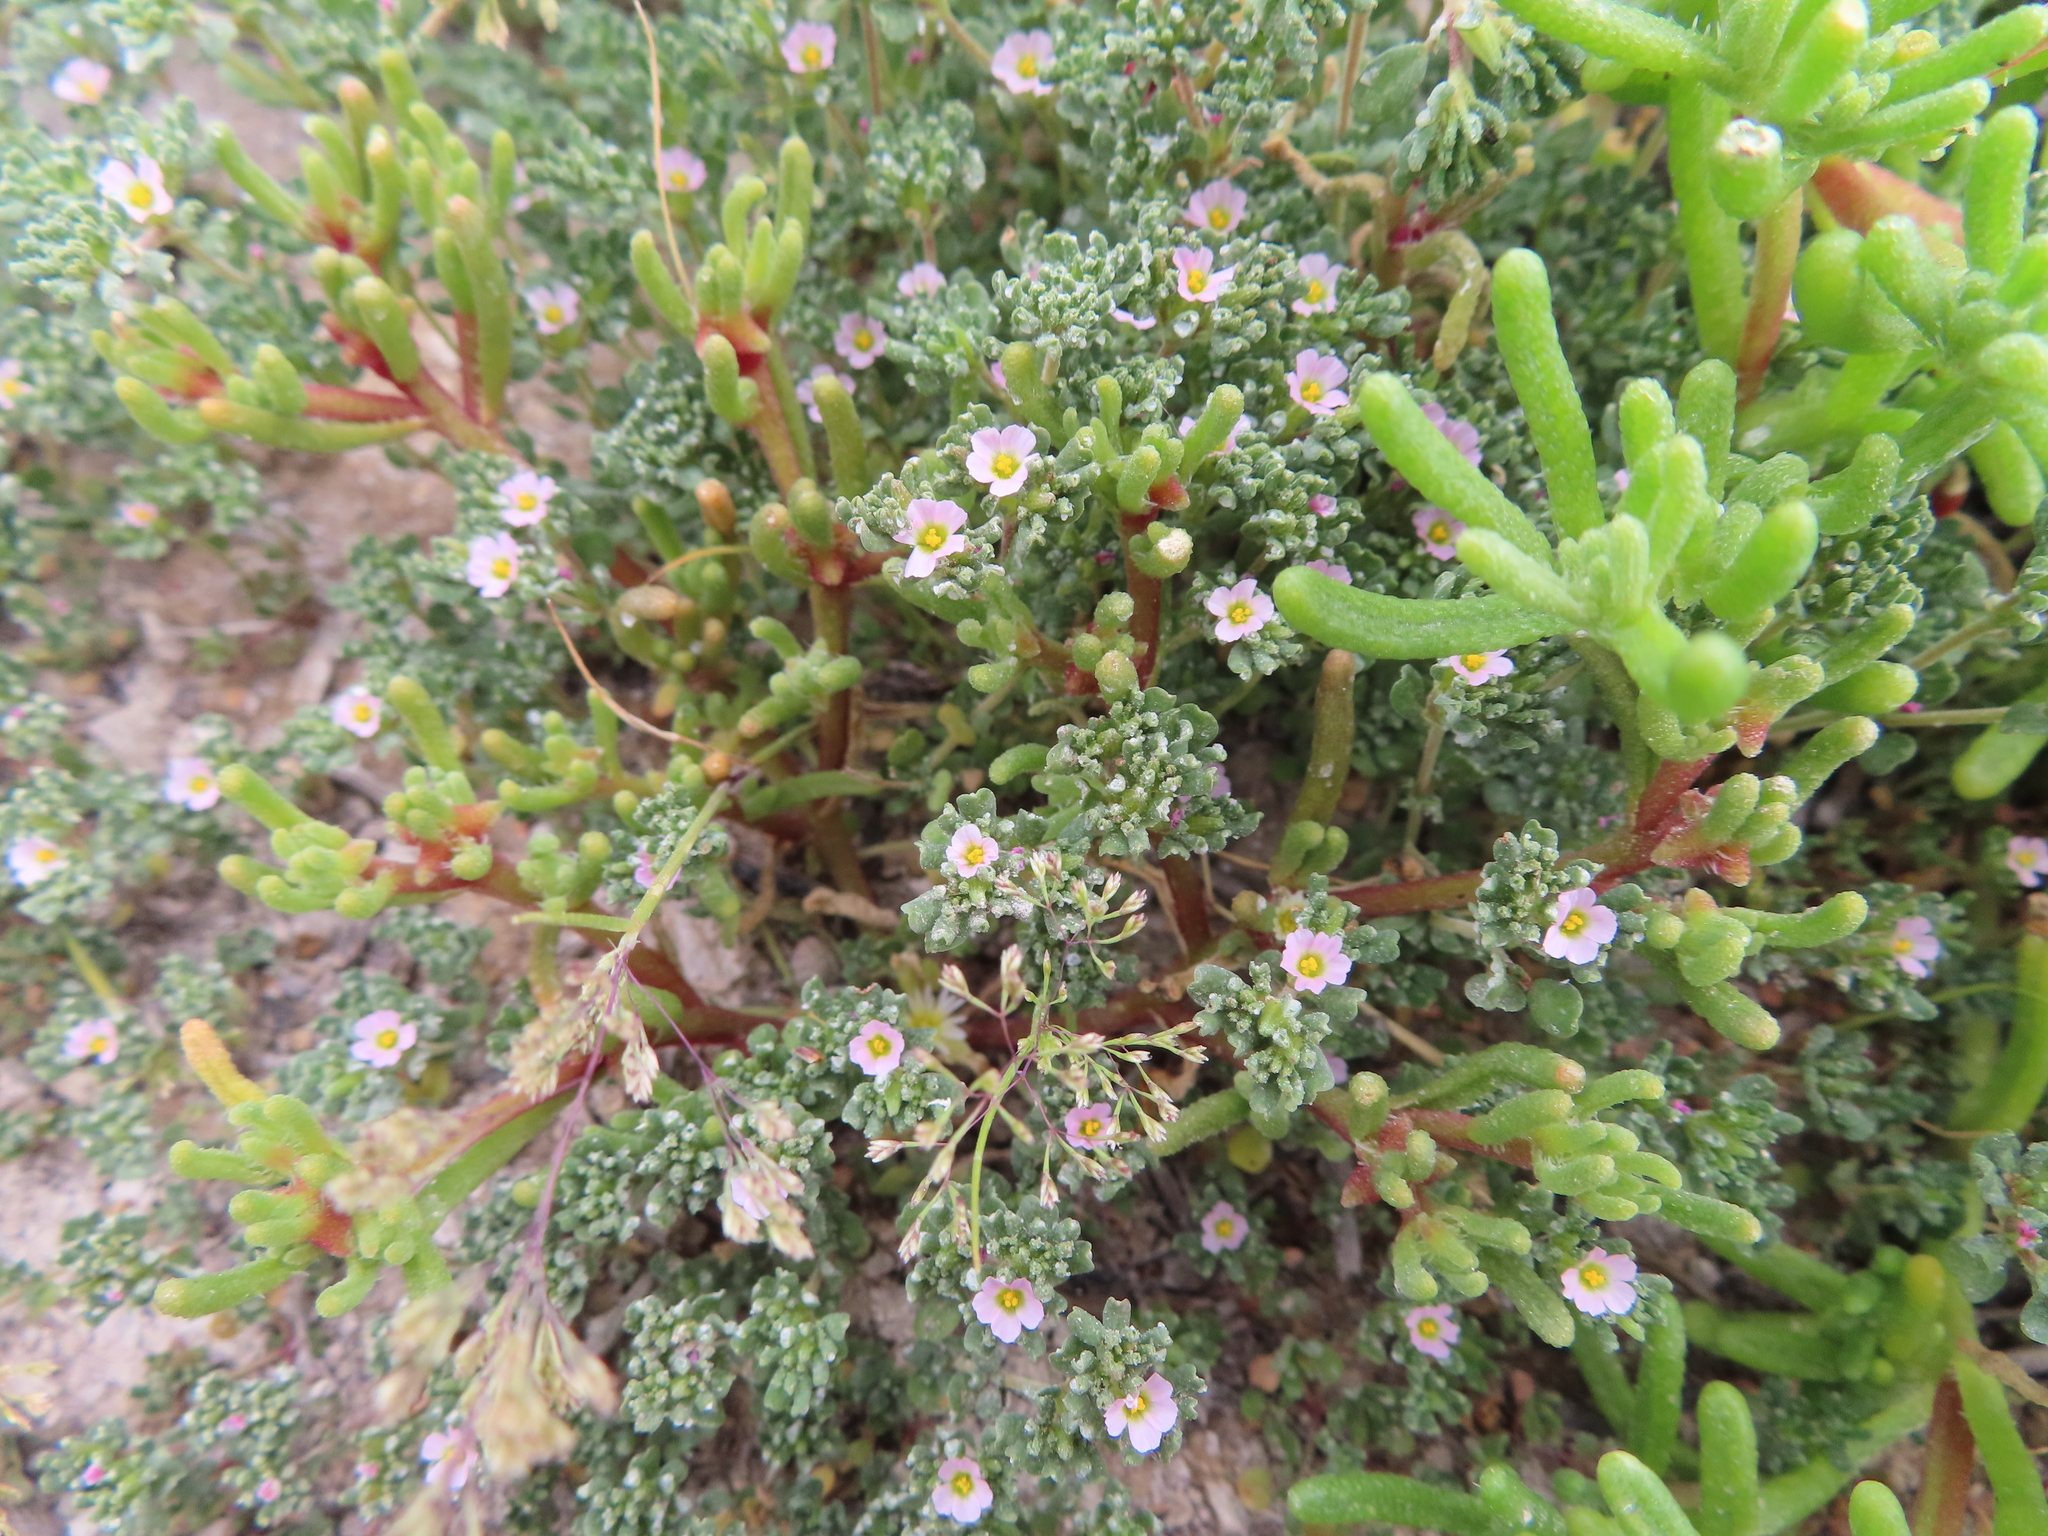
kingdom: Plantae
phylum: Tracheophyta
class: Magnoliopsida
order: Caryophyllales
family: Frankeniaceae
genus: Frankenia
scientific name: Frankenia pulverulenta
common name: European seaheath
